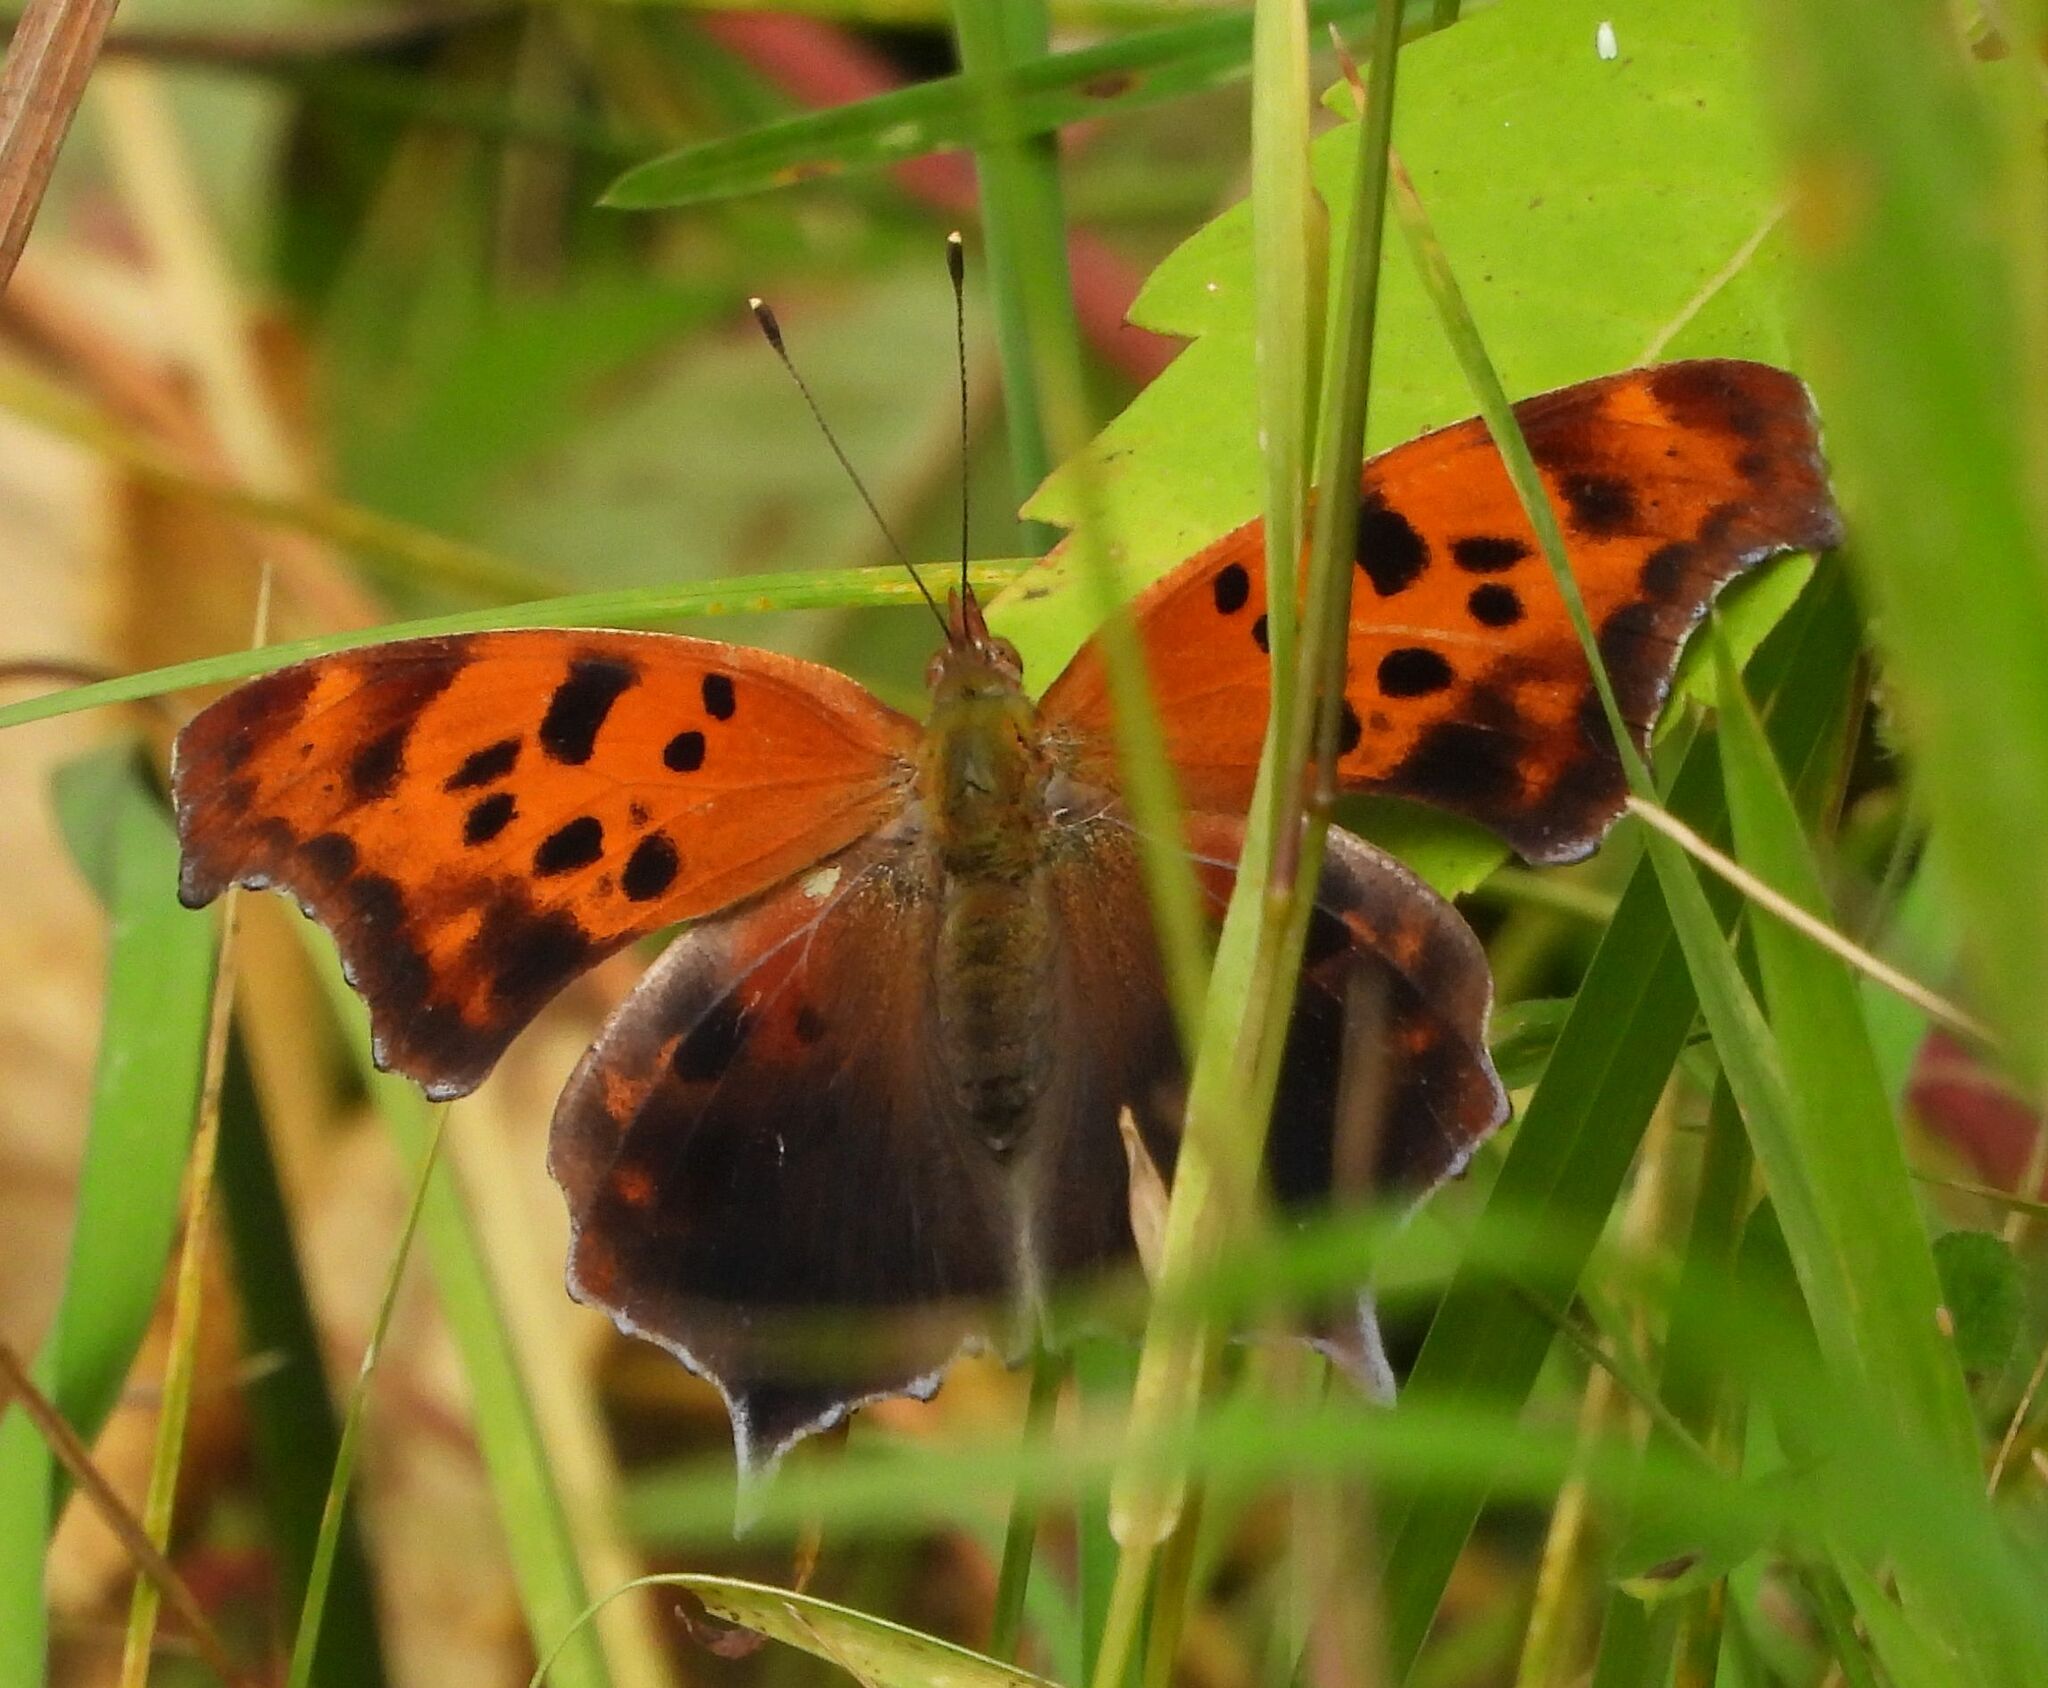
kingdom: Animalia
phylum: Arthropoda
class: Insecta
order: Lepidoptera
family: Nymphalidae
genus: Polygonia
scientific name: Polygonia interrogationis
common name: Question mark
